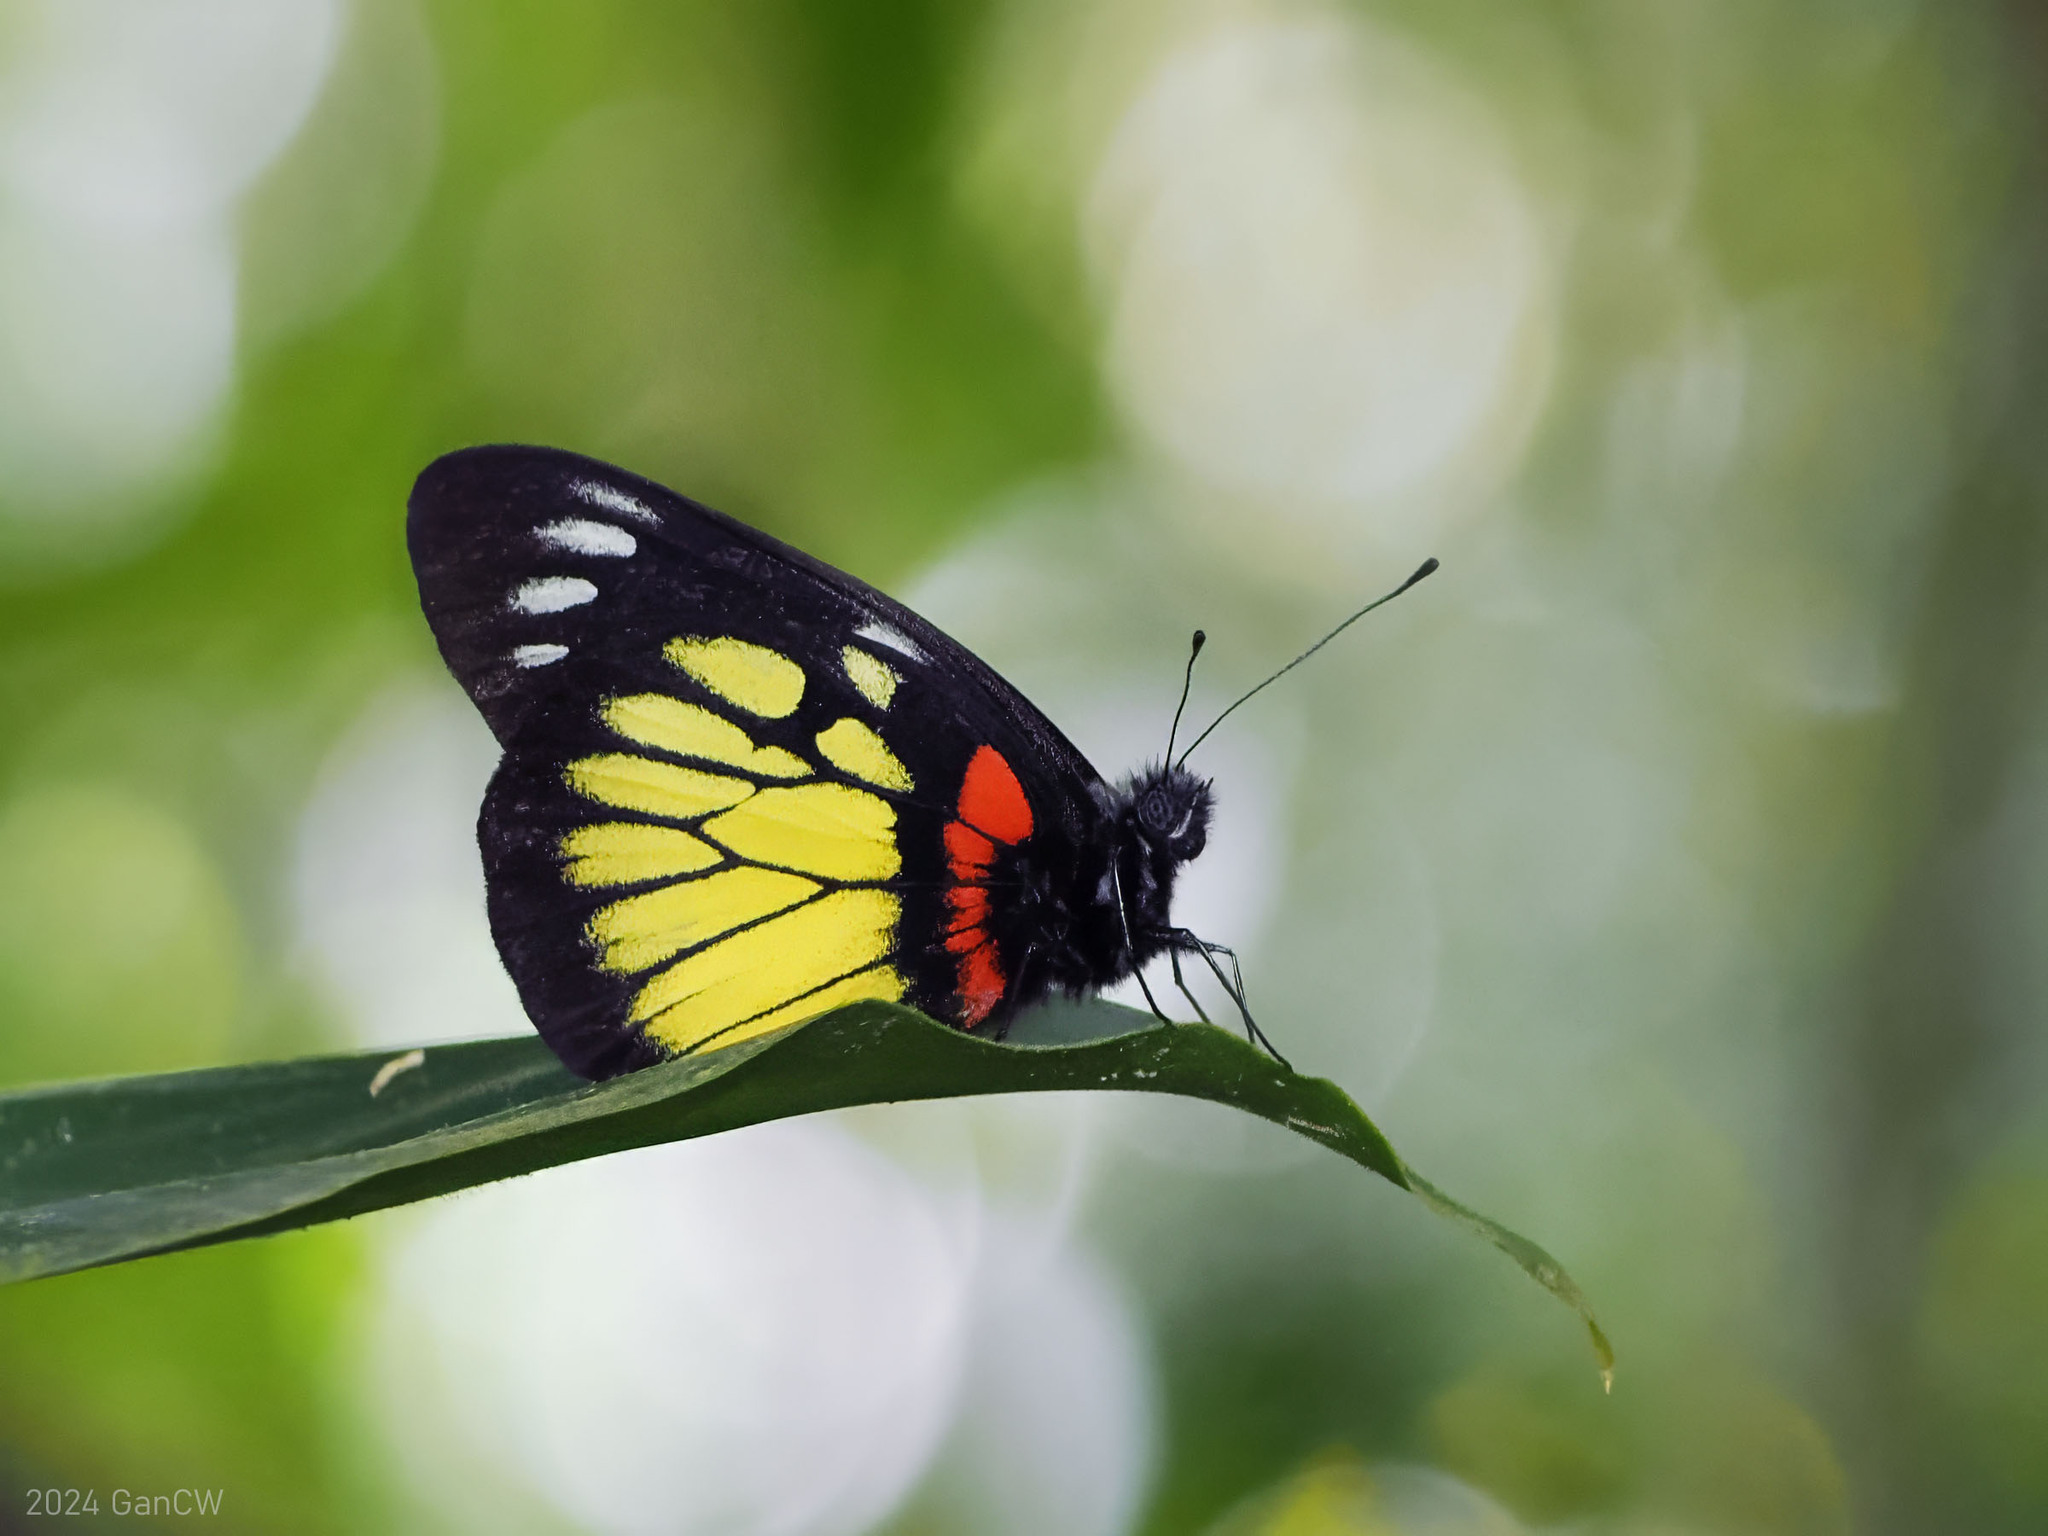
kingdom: Animalia
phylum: Arthropoda
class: Insecta
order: Lepidoptera
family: Pieridae
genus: Delias
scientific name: Delias henningia
